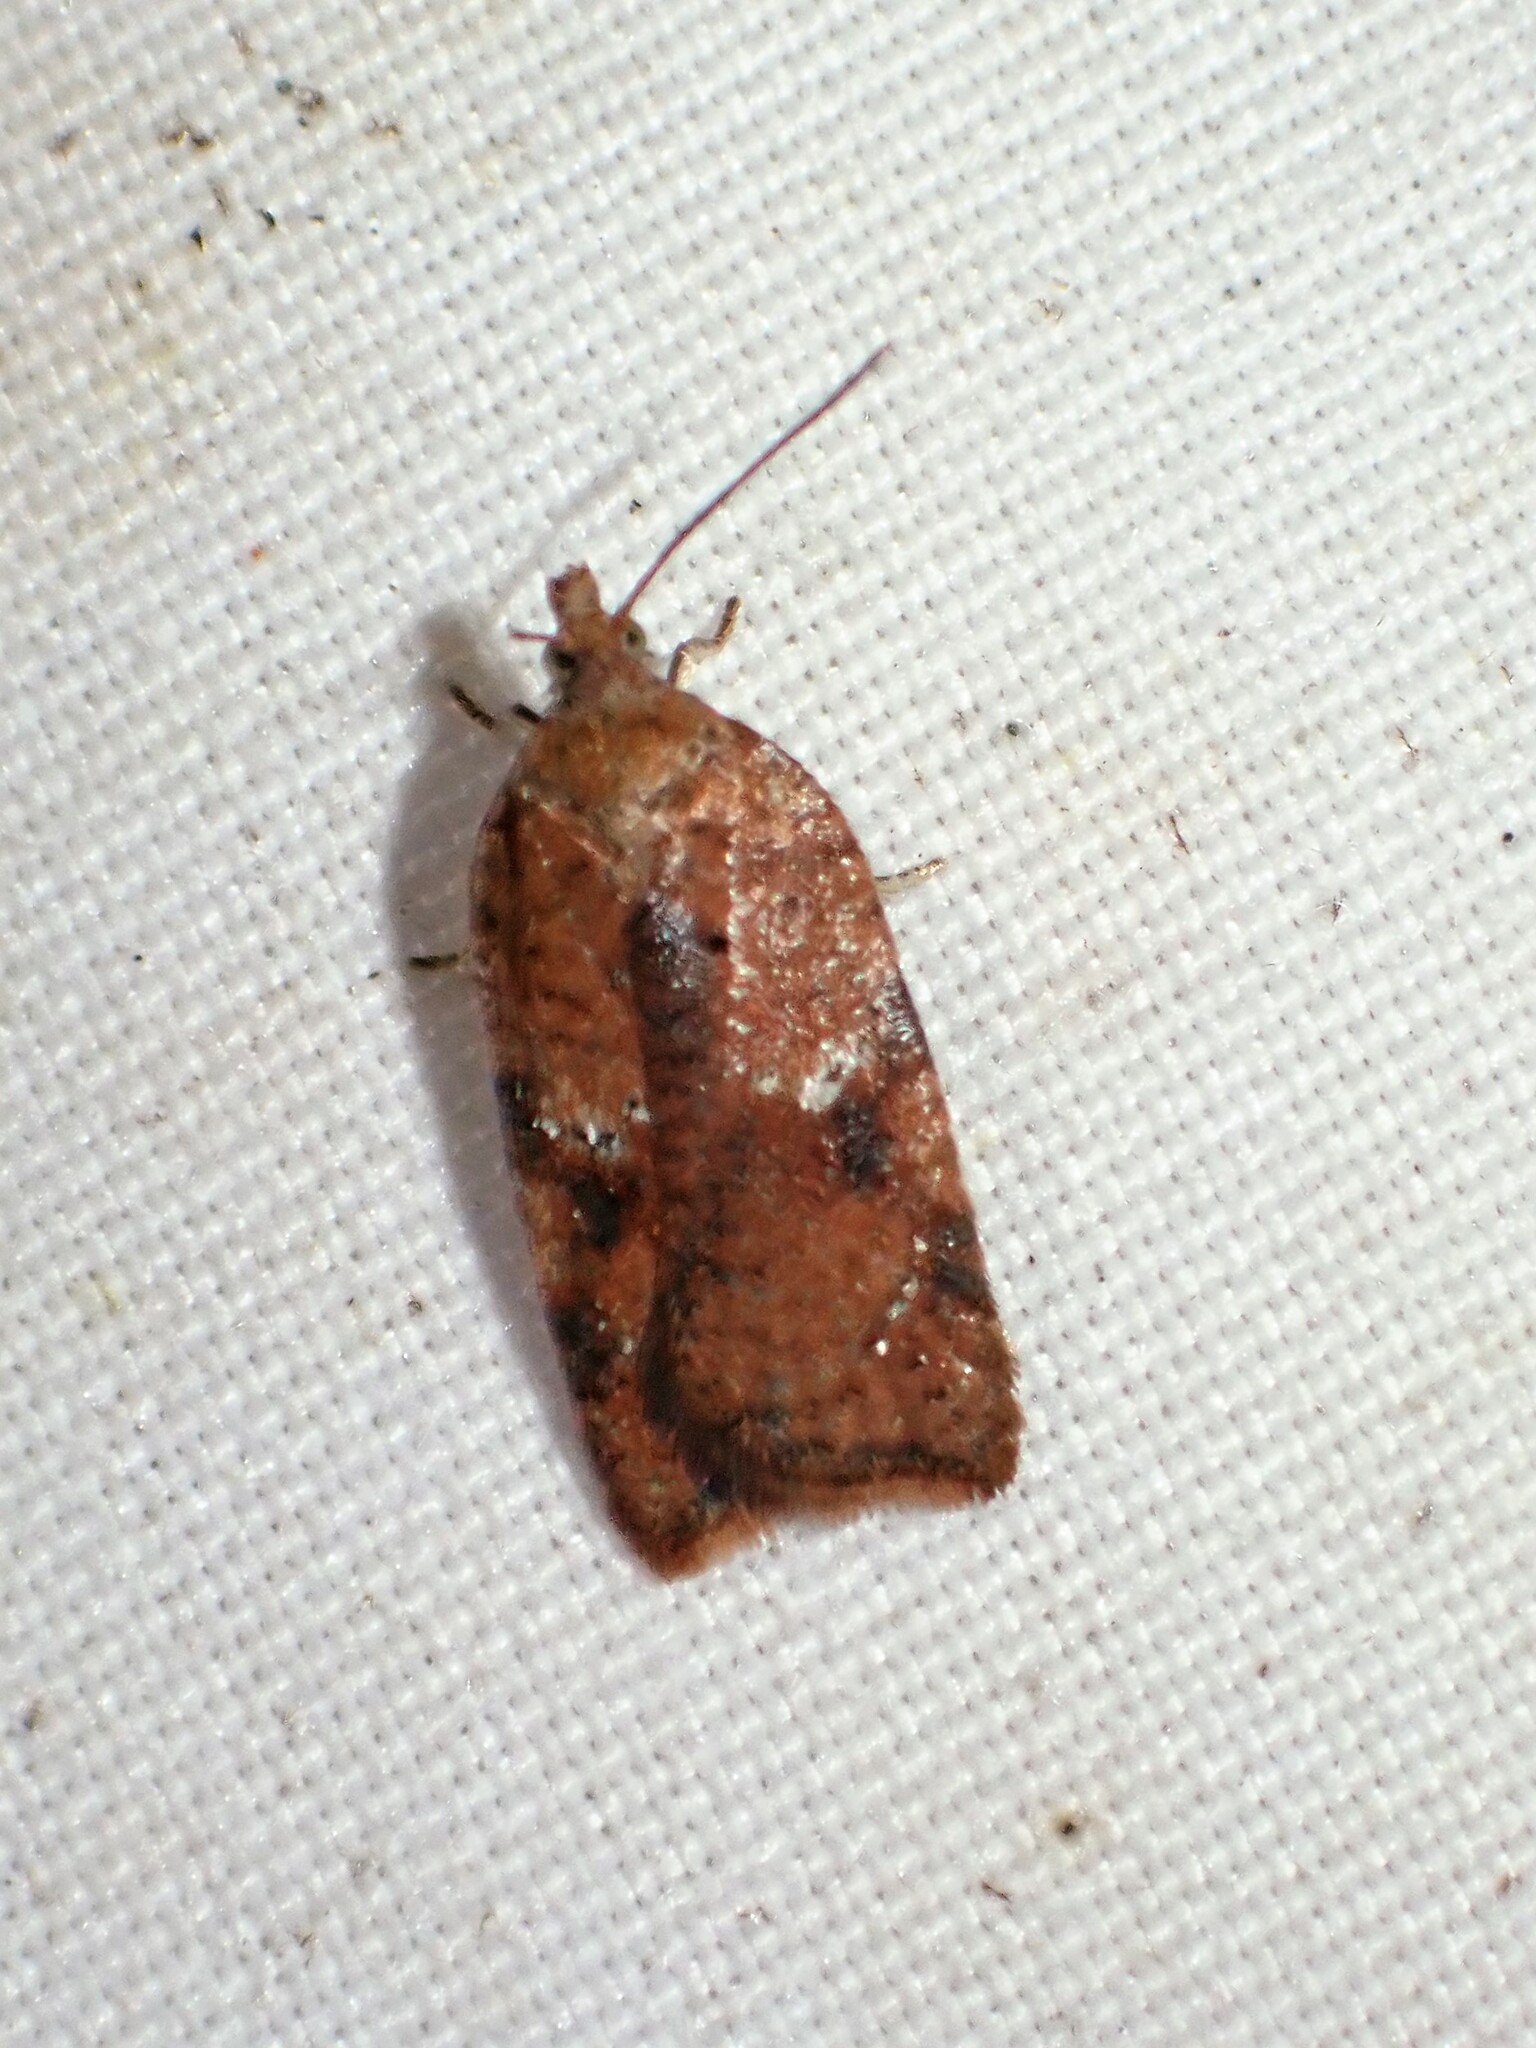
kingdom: Animalia
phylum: Arthropoda
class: Insecta
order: Lepidoptera
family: Tortricidae
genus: Acleris
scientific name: Acleris stadiana
